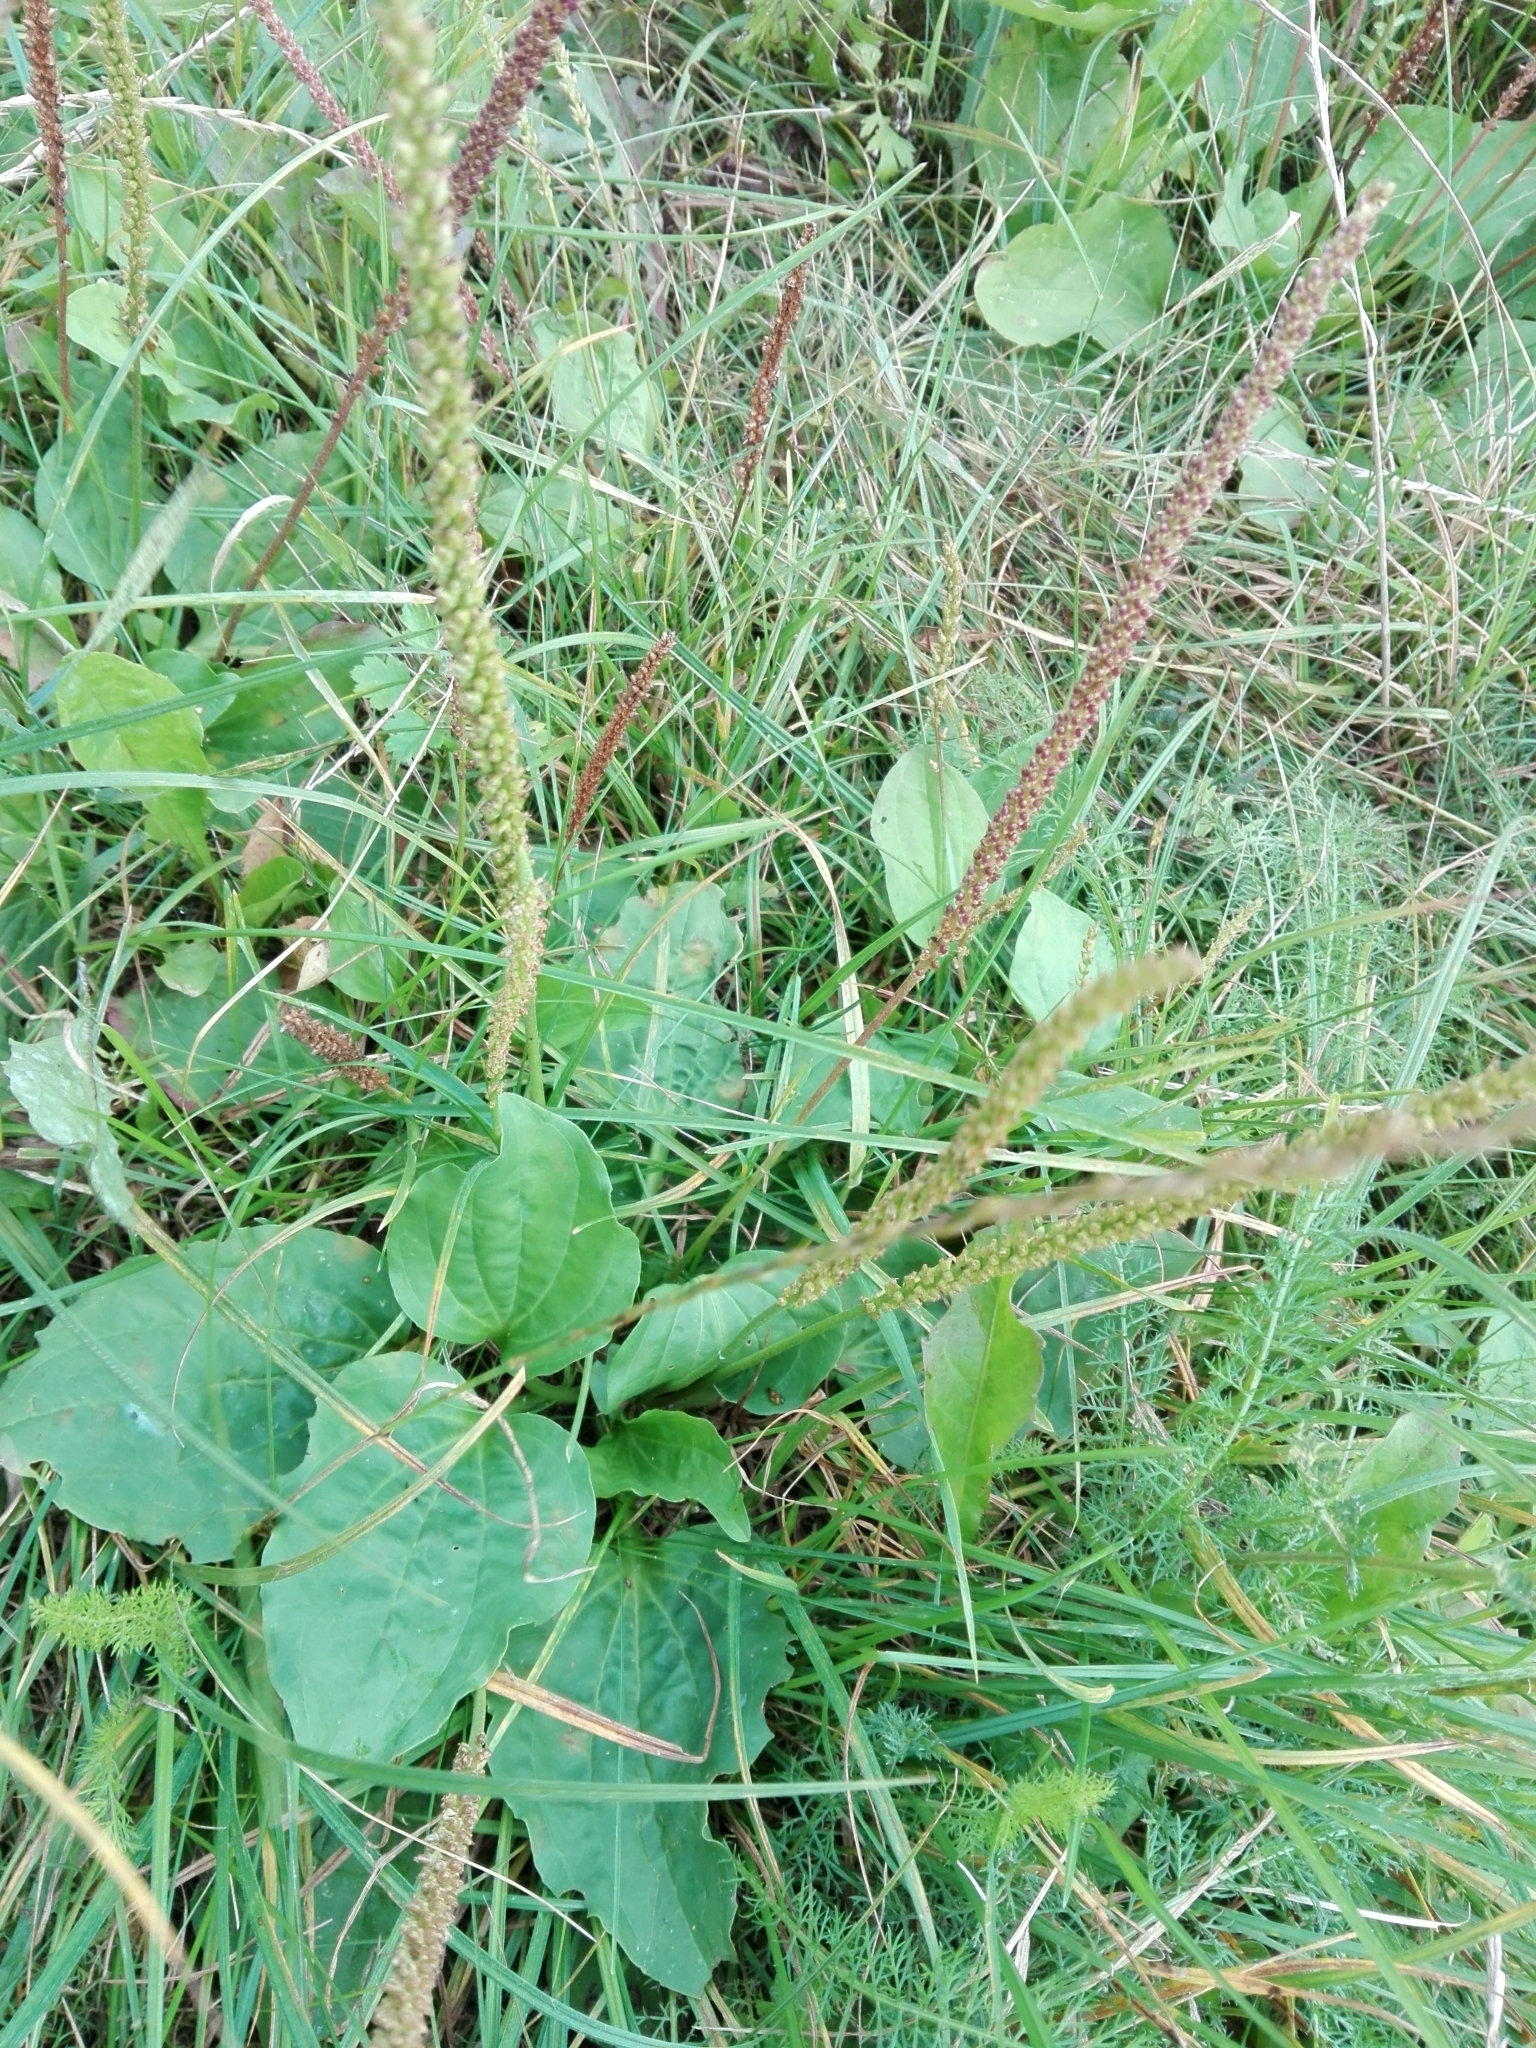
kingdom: Plantae
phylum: Tracheophyta
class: Magnoliopsida
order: Lamiales
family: Plantaginaceae
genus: Plantago
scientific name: Plantago major
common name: Common plantain
